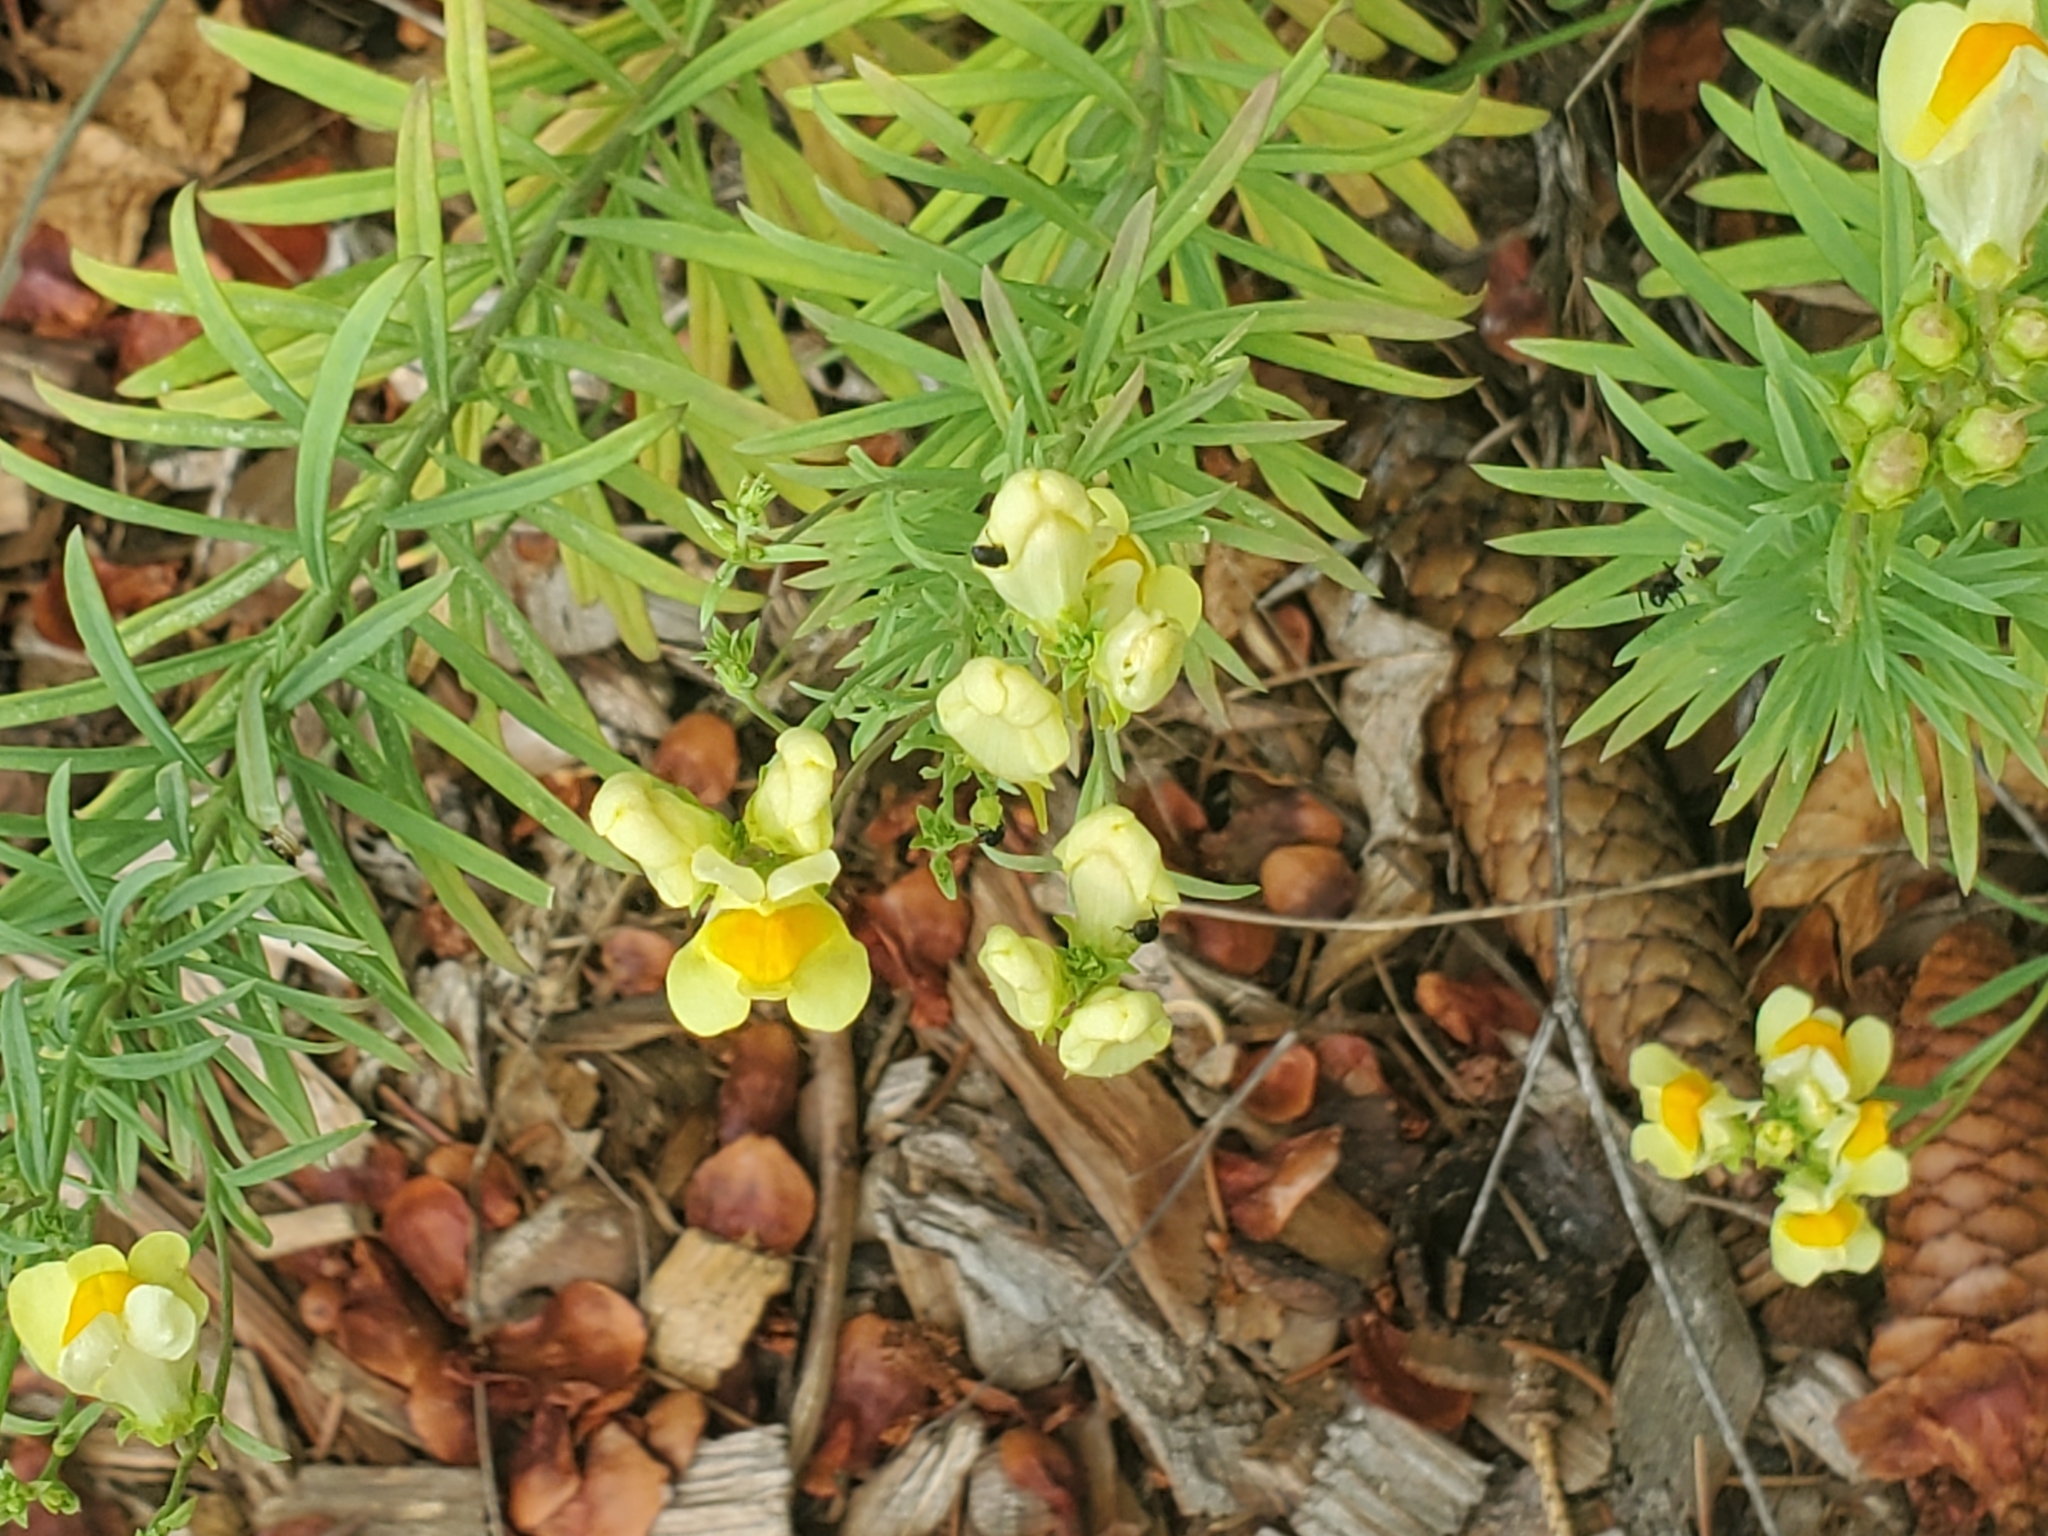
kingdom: Plantae
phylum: Tracheophyta
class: Magnoliopsida
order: Lamiales
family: Plantaginaceae
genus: Linaria
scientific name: Linaria vulgaris
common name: Butter and eggs
